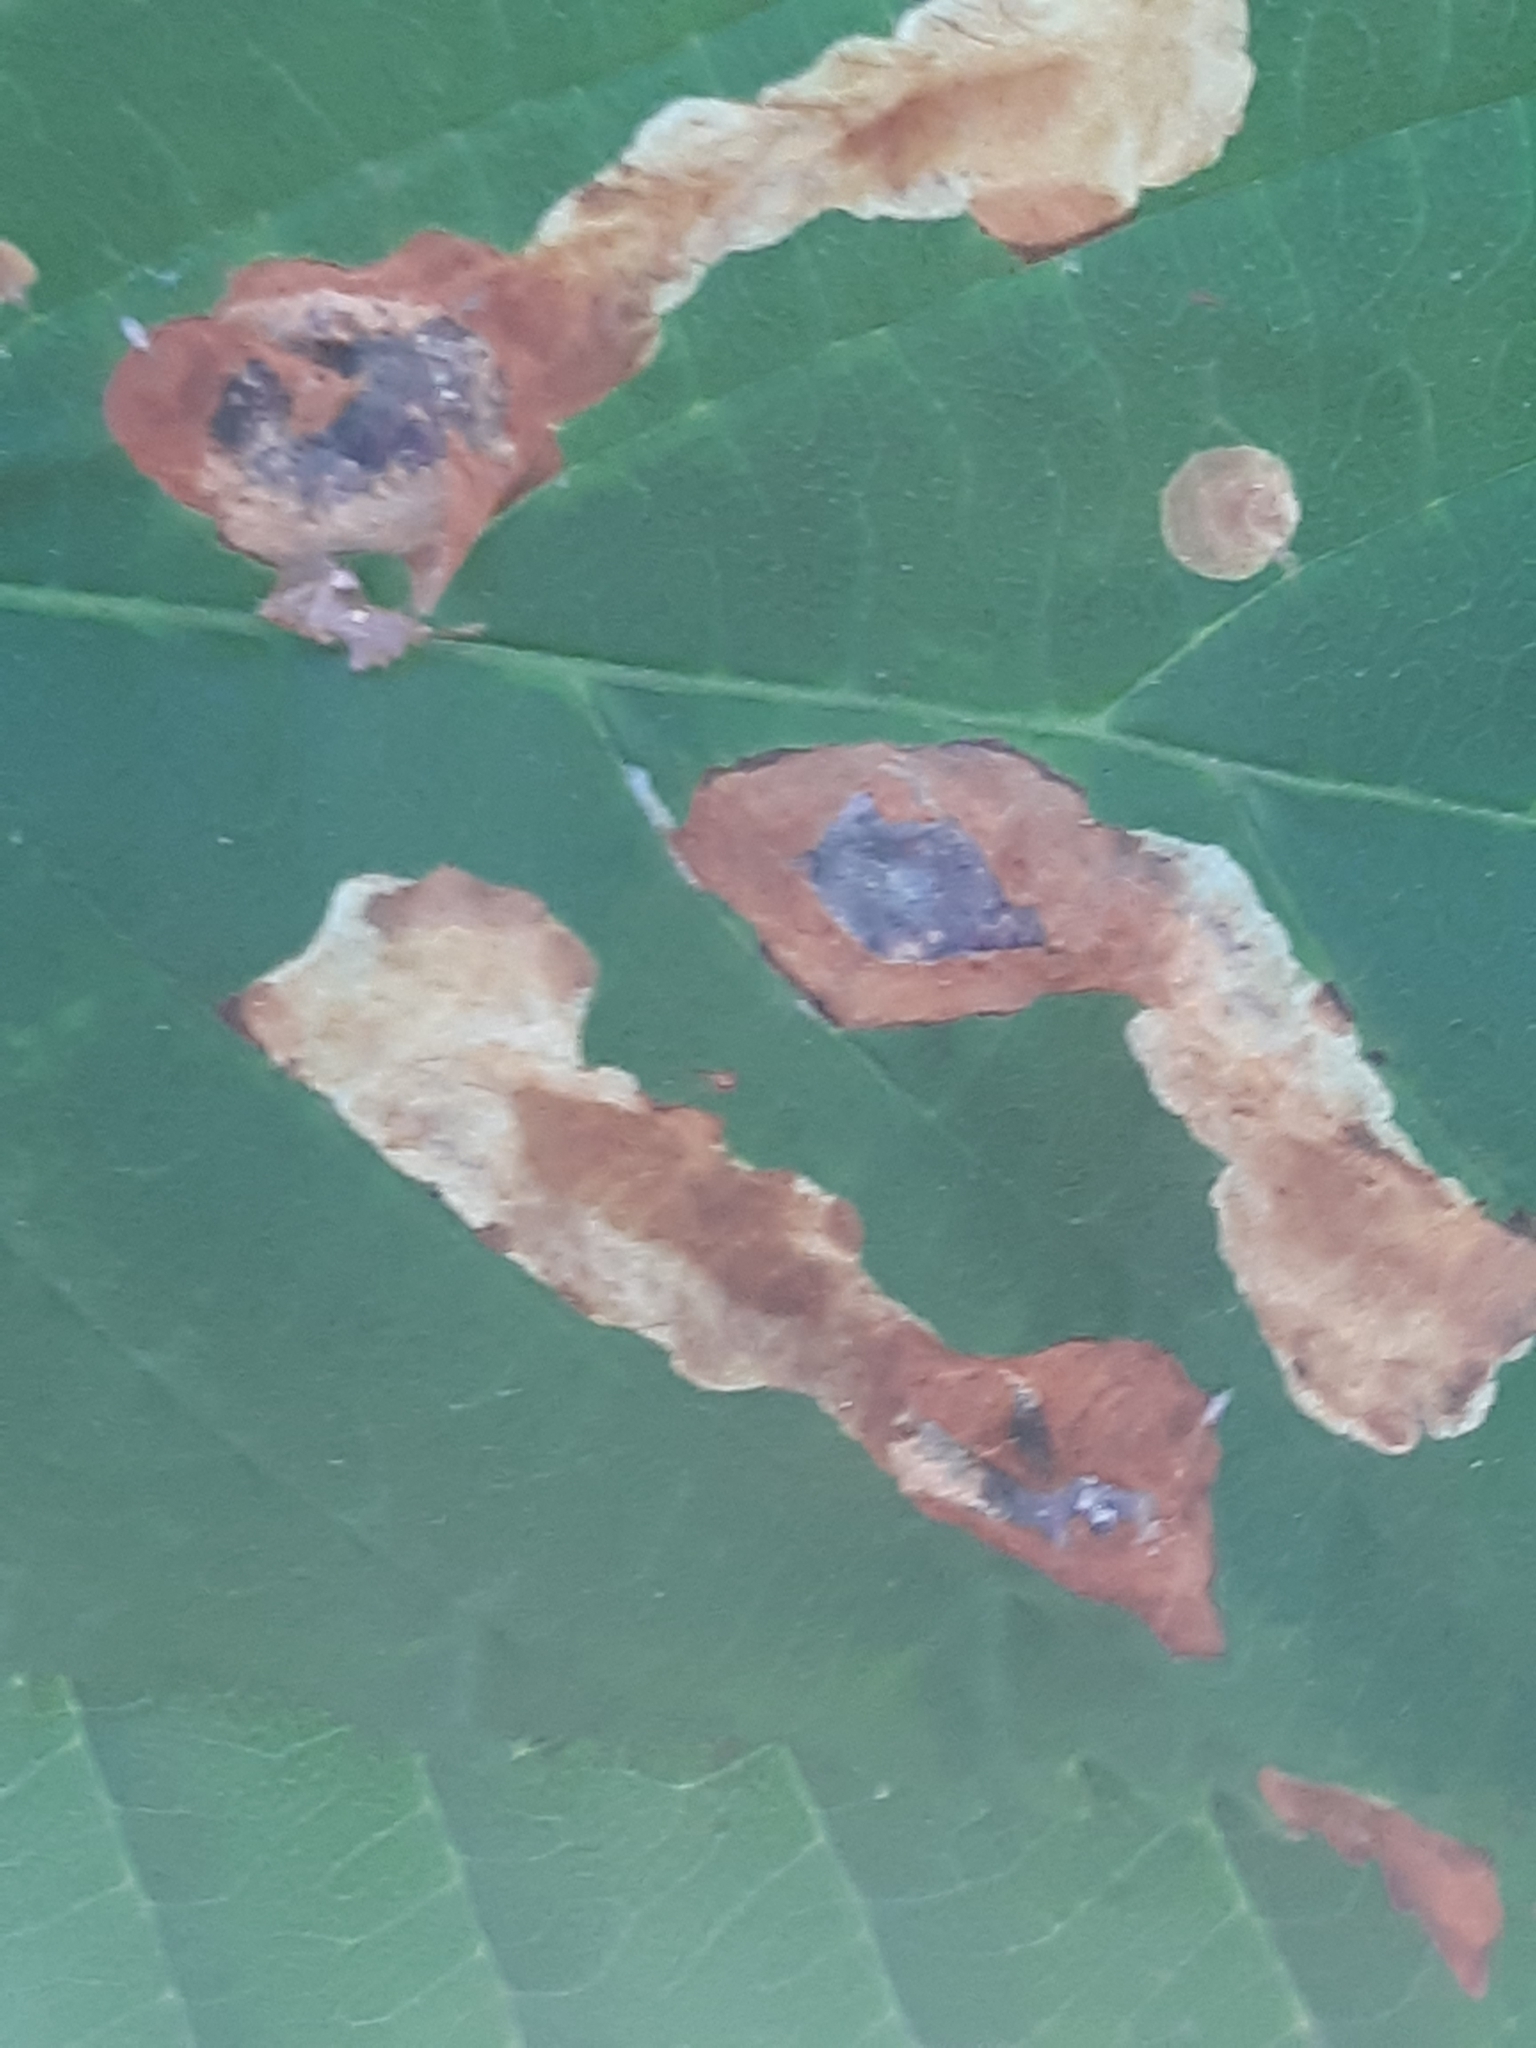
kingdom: Animalia
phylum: Arthropoda
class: Insecta
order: Lepidoptera
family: Gracillariidae
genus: Cameraria
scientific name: Cameraria ohridella
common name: Horse-chestnut leaf-miner
